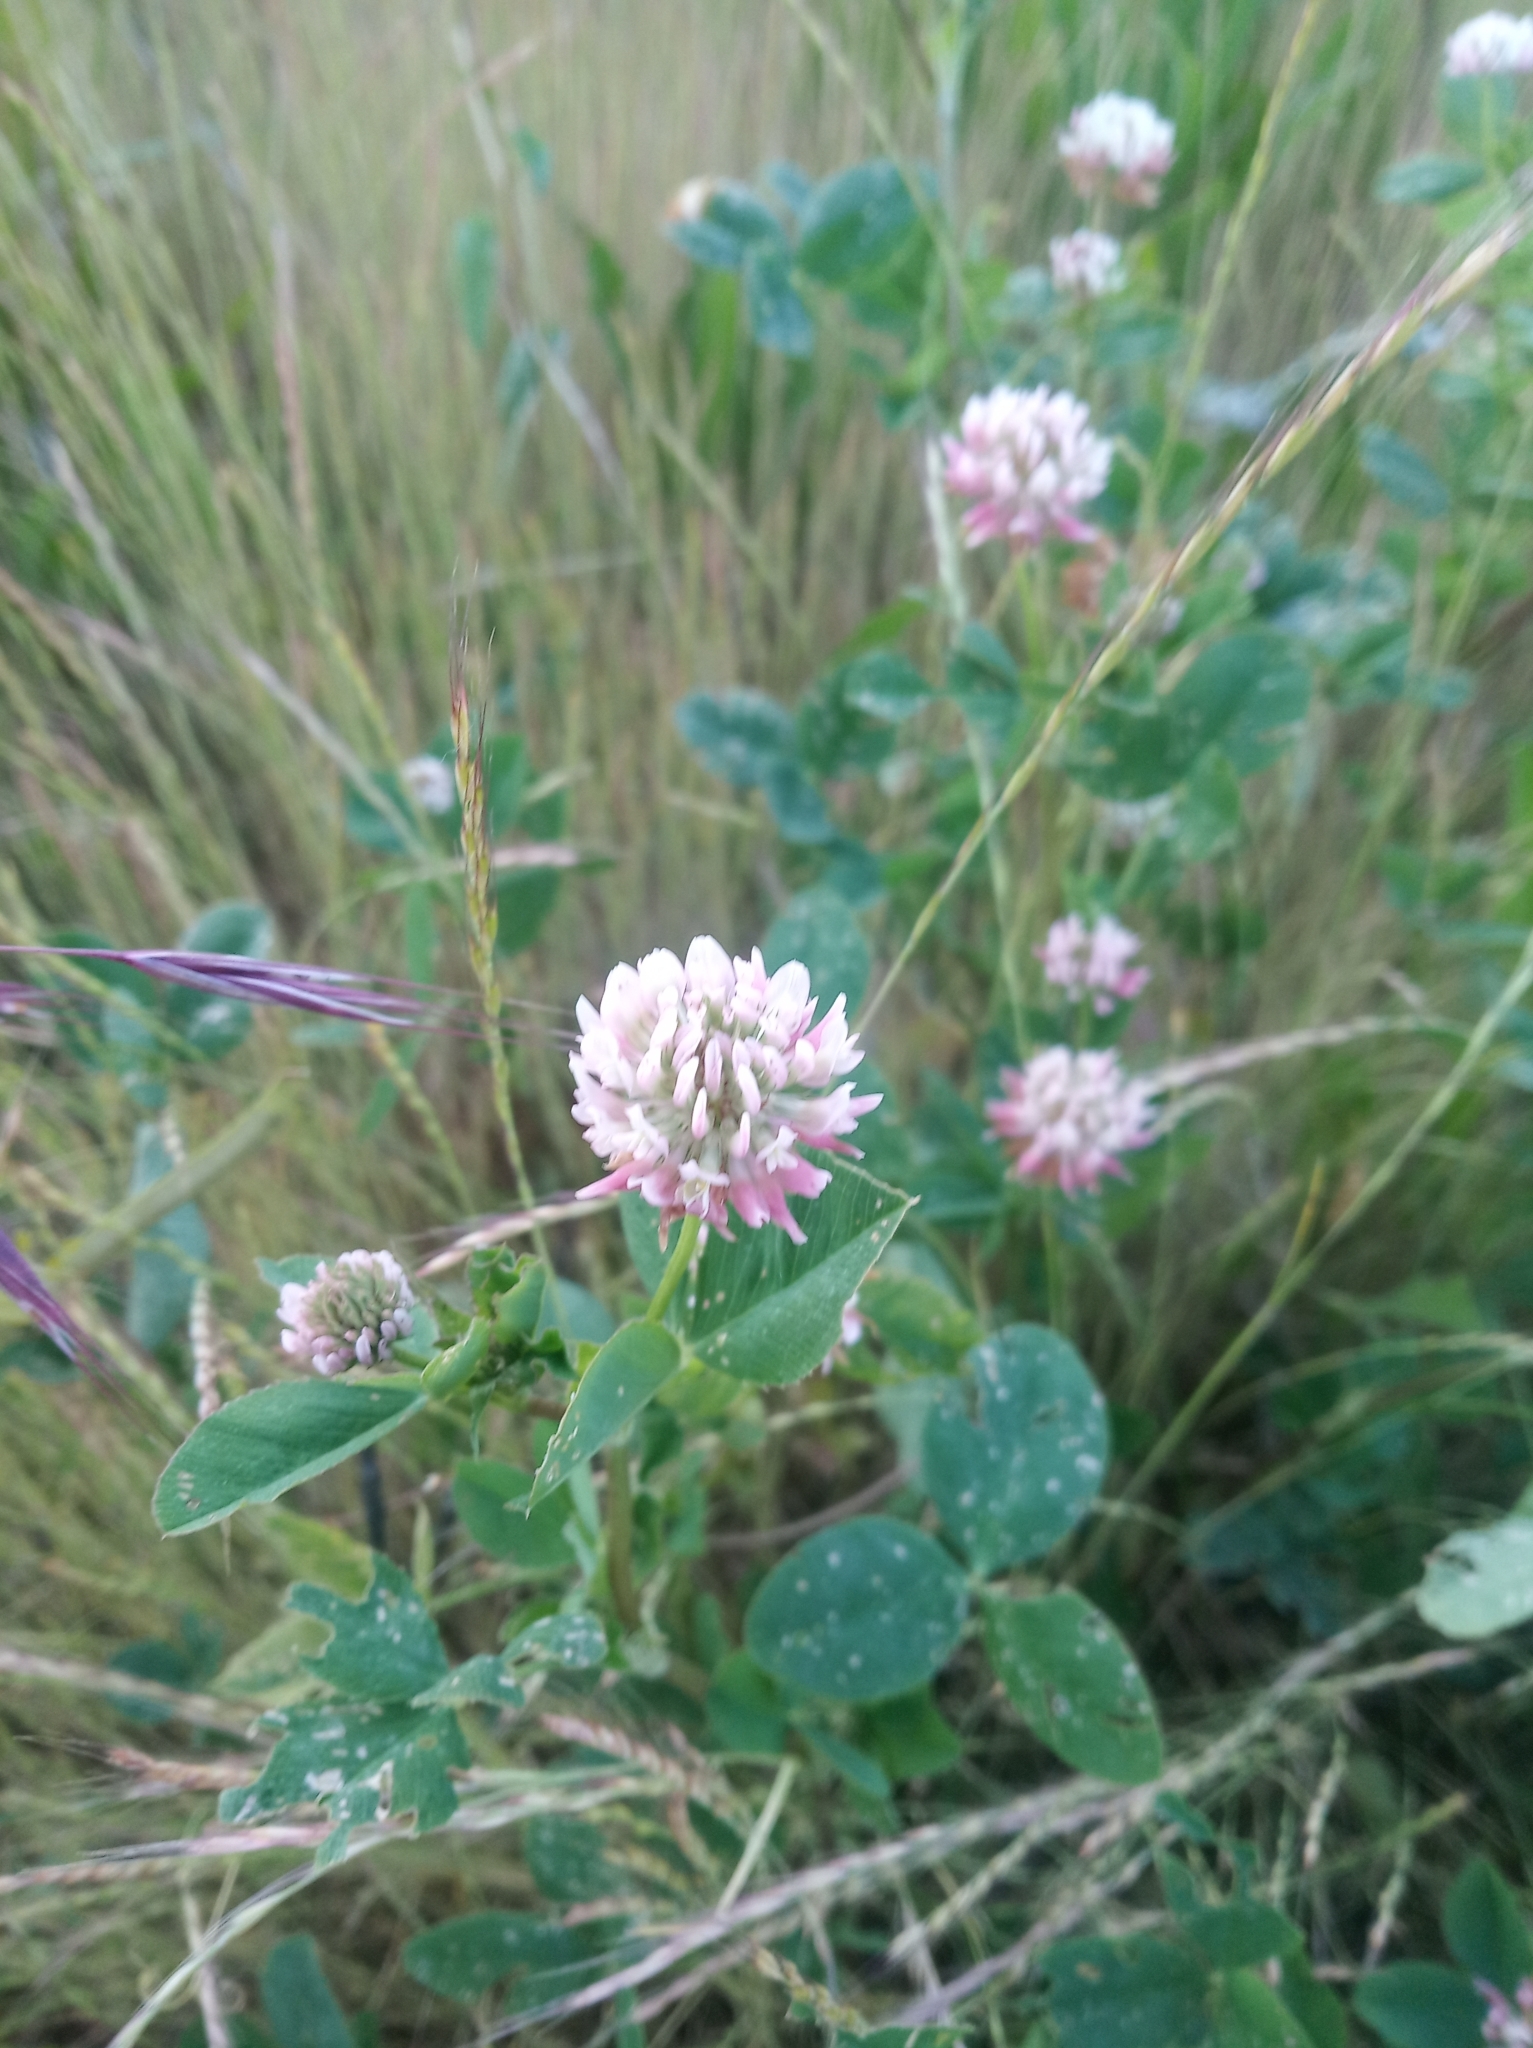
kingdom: Plantae
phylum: Tracheophyta
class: Magnoliopsida
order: Fabales
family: Fabaceae
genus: Trifolium
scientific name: Trifolium hybridum
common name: Alsike clover
